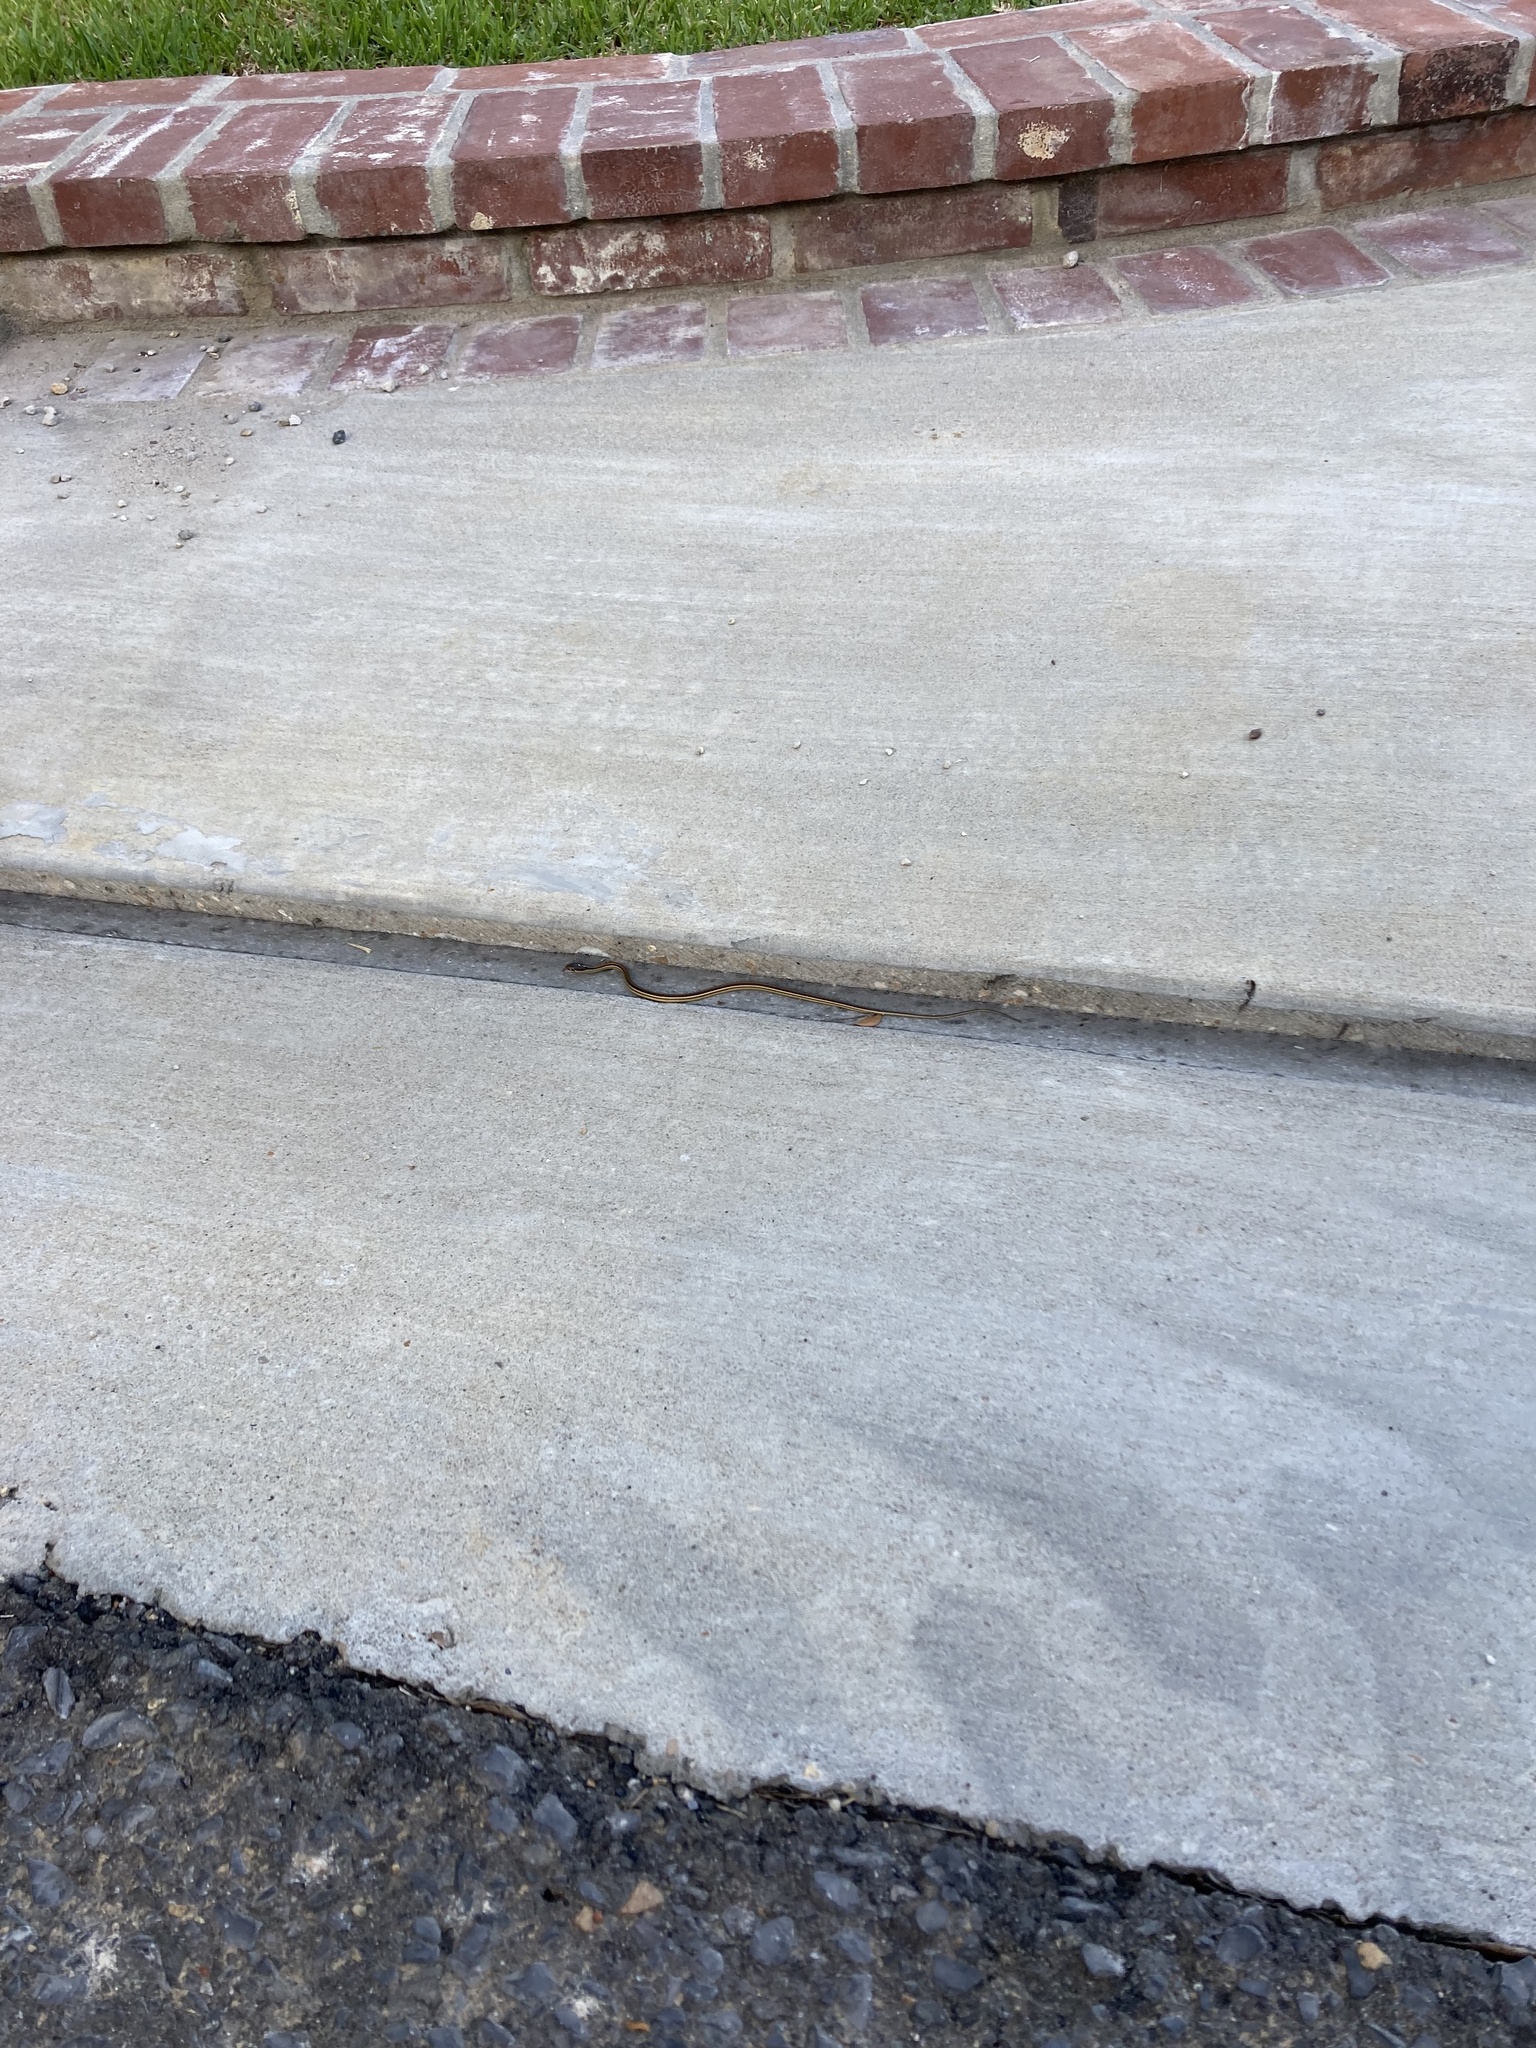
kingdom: Animalia
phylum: Chordata
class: Squamata
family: Colubridae
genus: Thamnophis
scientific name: Thamnophis proximus
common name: Western ribbon snake
